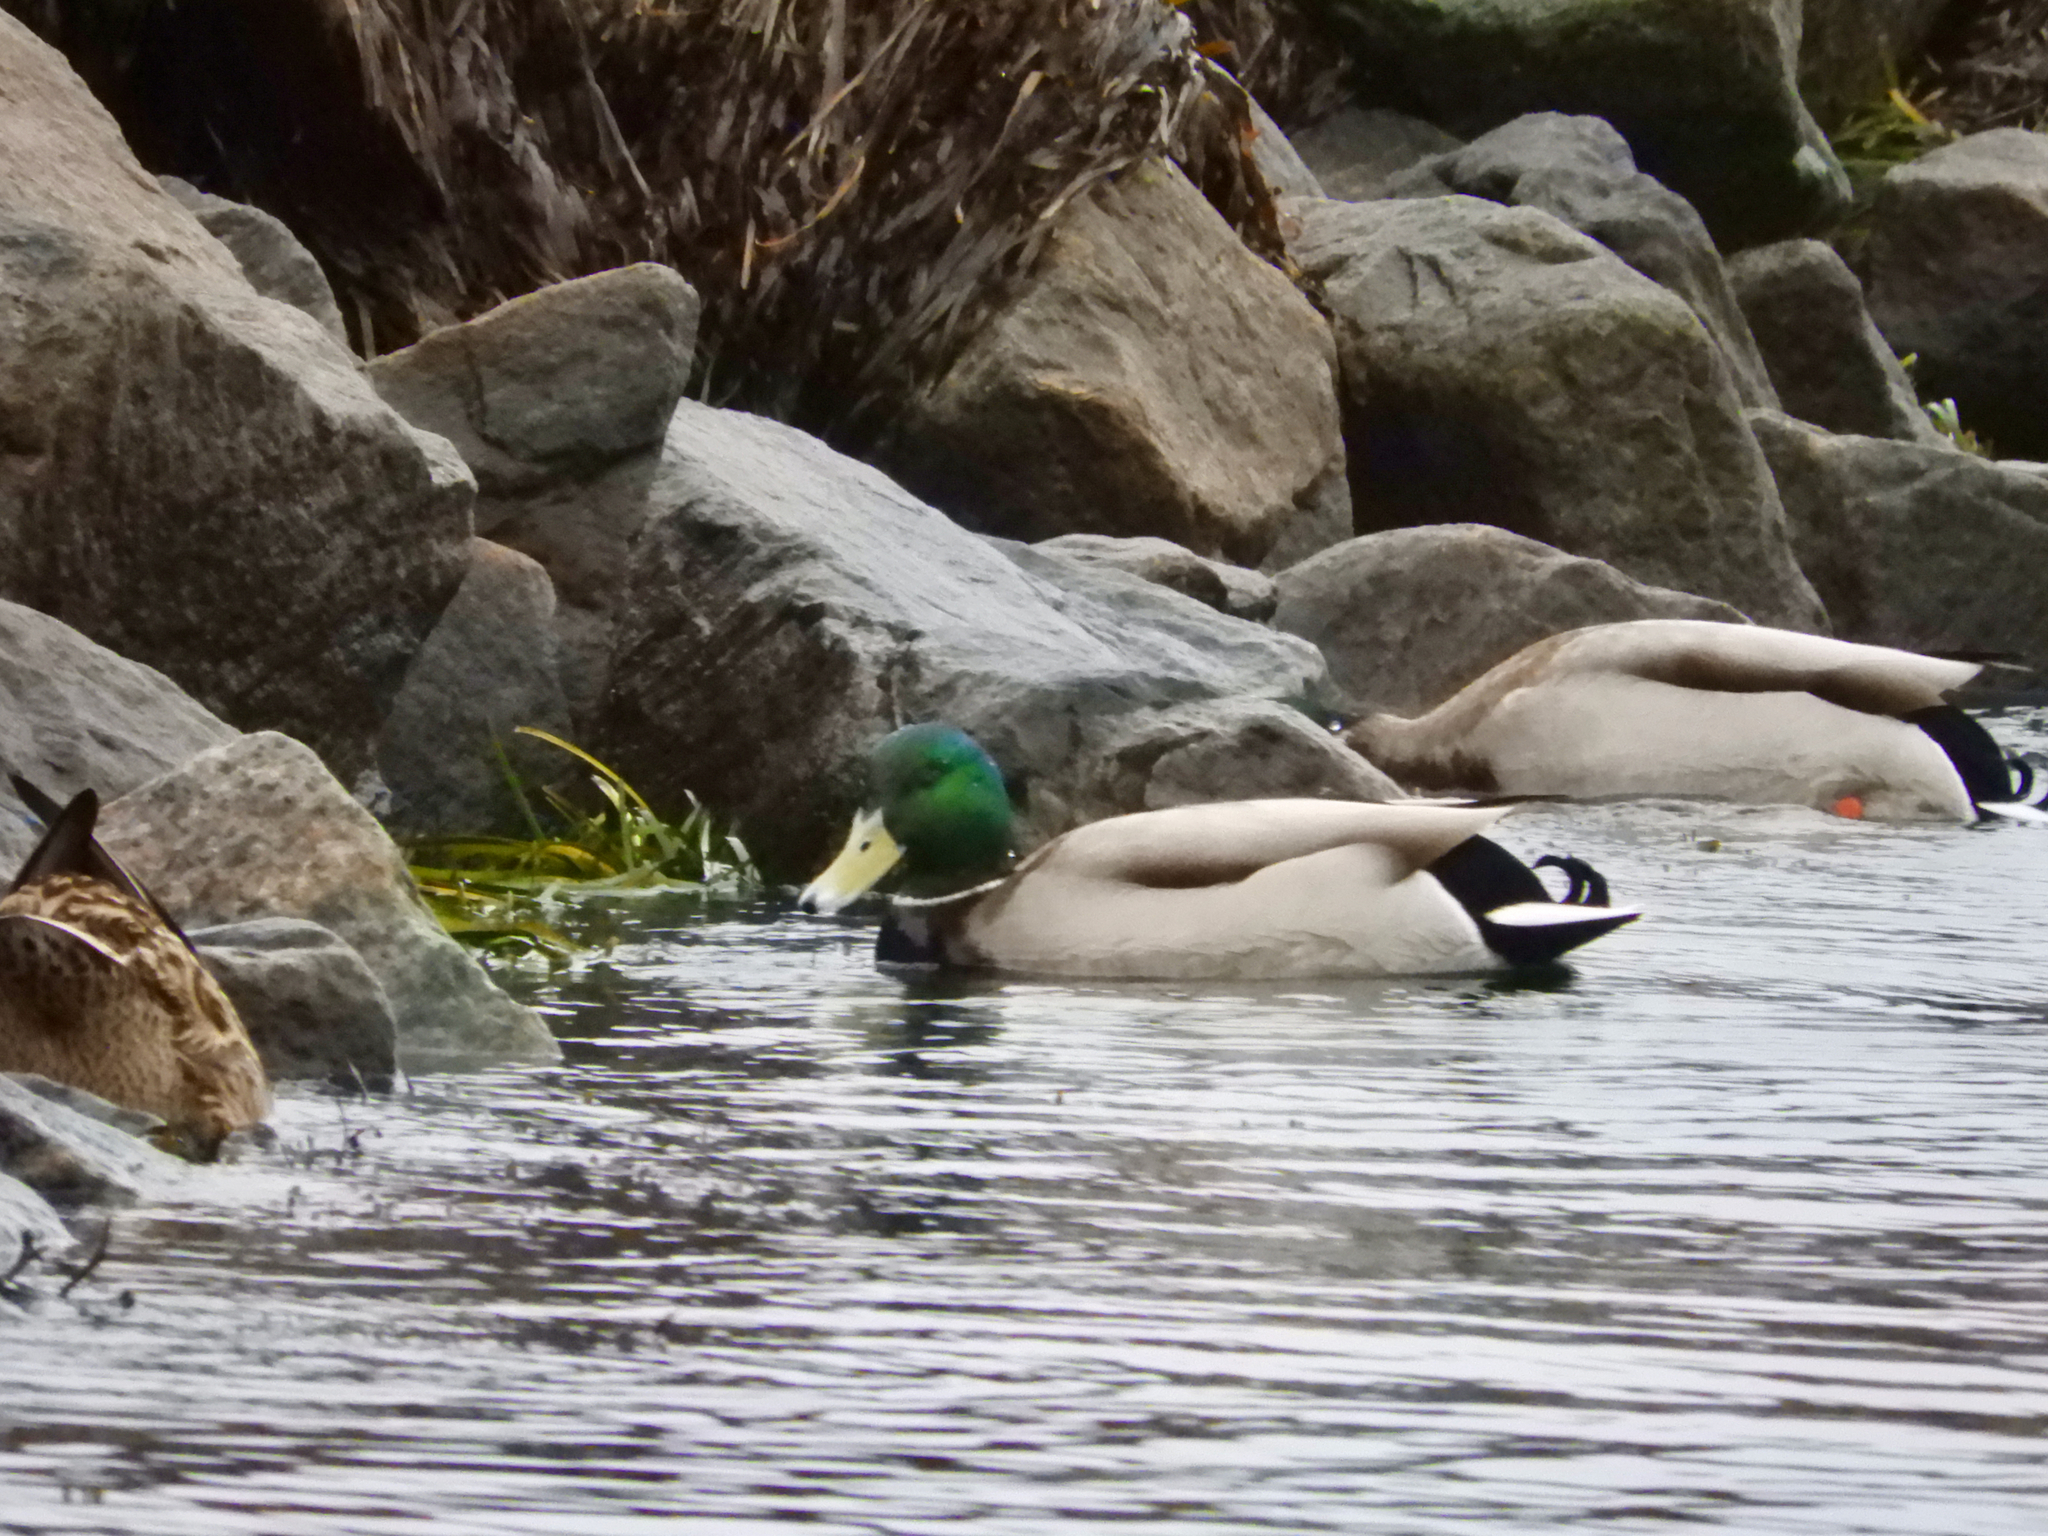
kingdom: Animalia
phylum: Chordata
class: Aves
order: Anseriformes
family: Anatidae
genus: Anas
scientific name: Anas platyrhynchos
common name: Mallard
